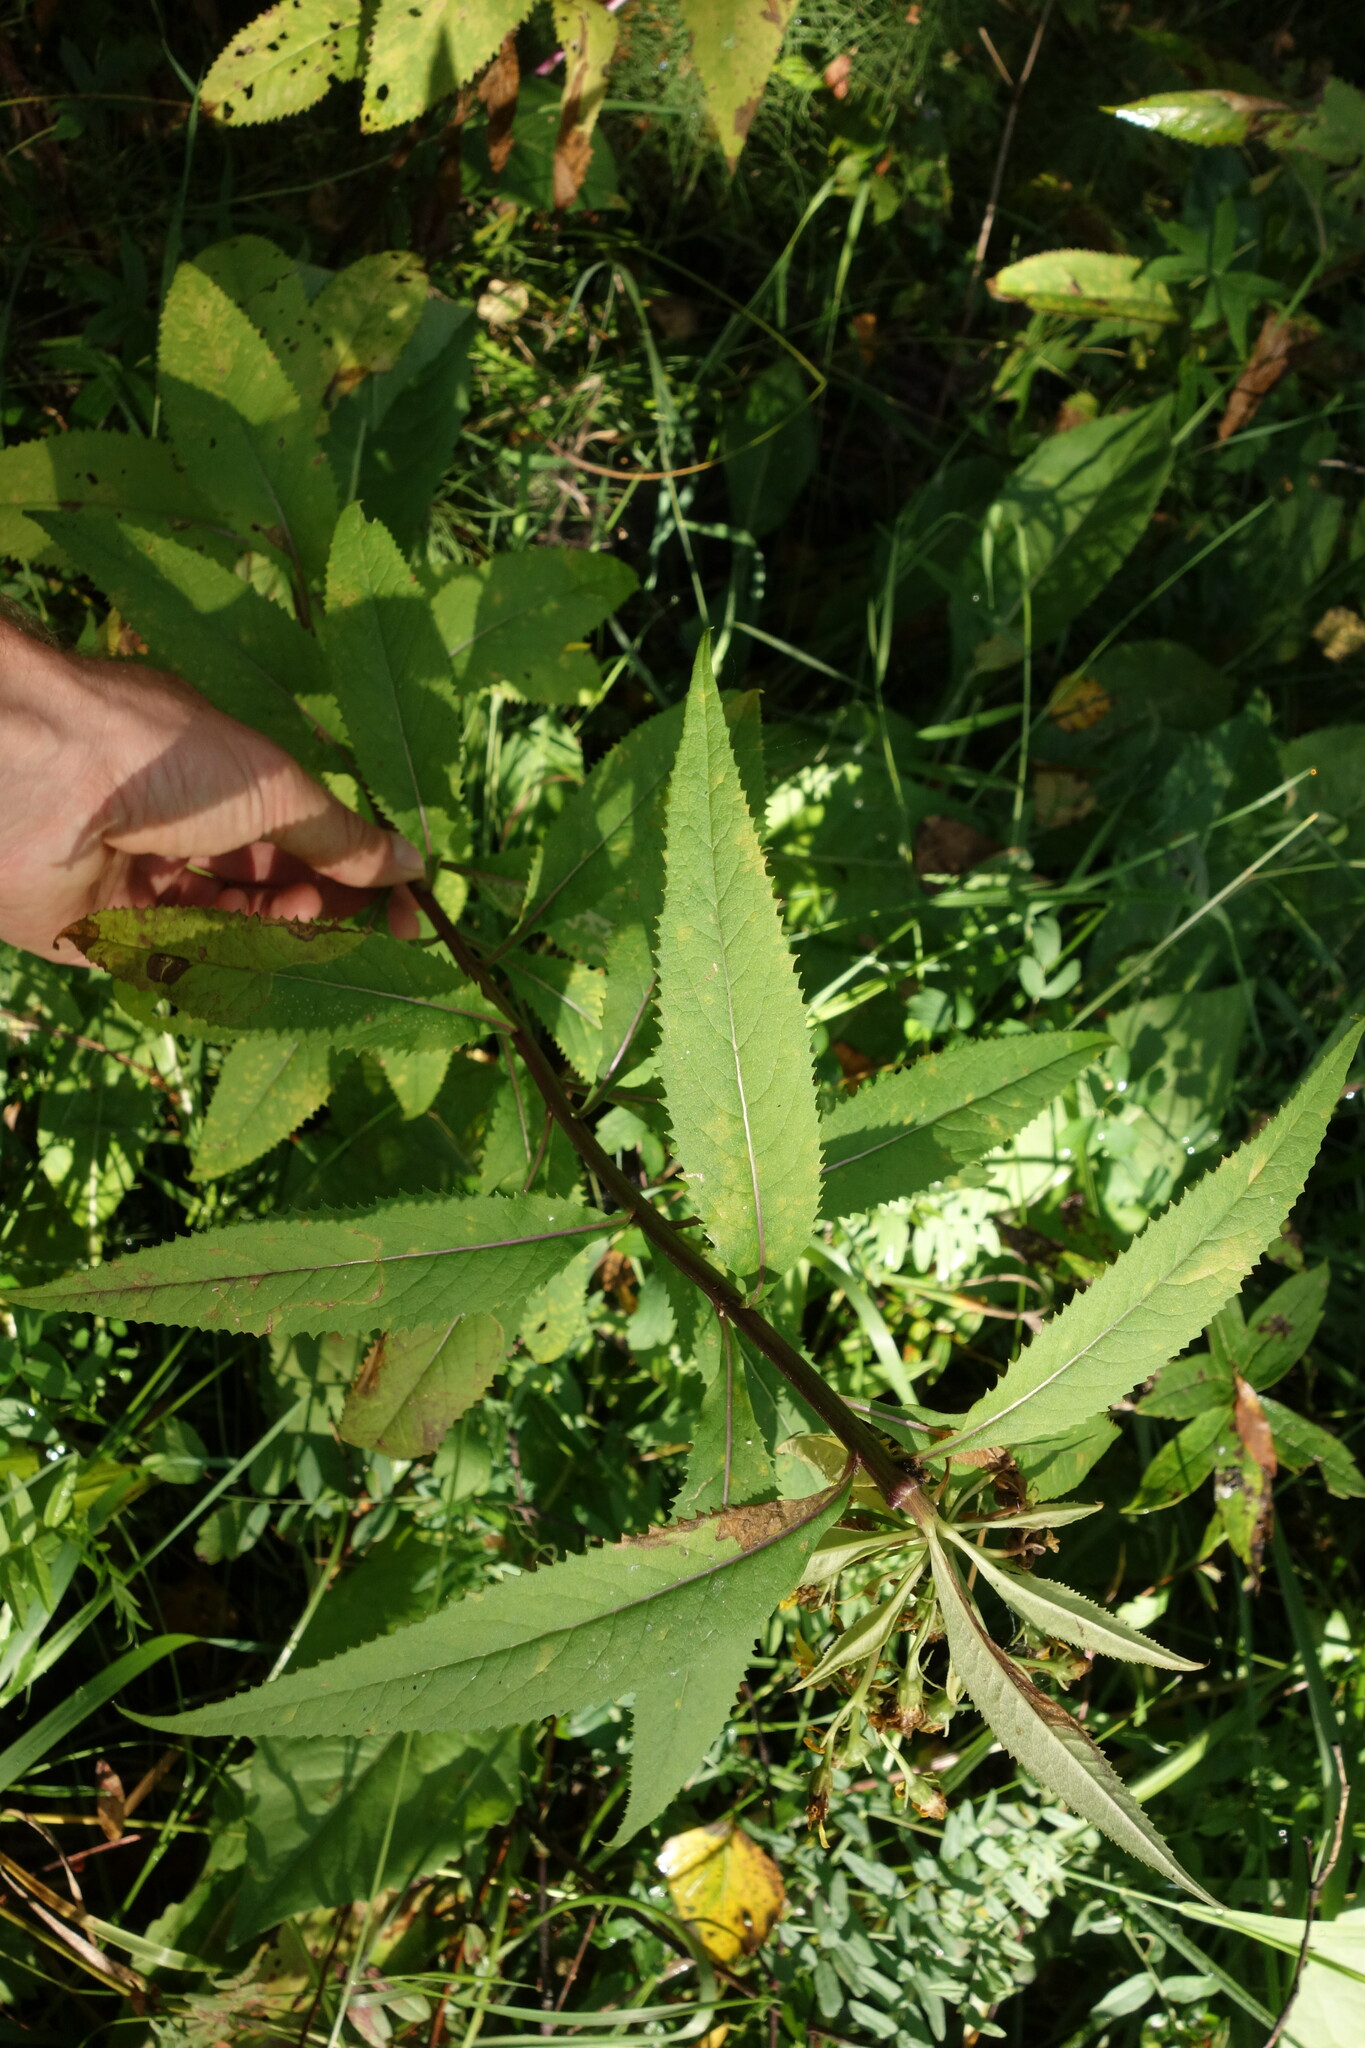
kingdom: Plantae
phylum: Tracheophyta
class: Magnoliopsida
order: Asterales
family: Asteraceae
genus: Senecio
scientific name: Senecio nemorensis
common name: Alpine ragwort
